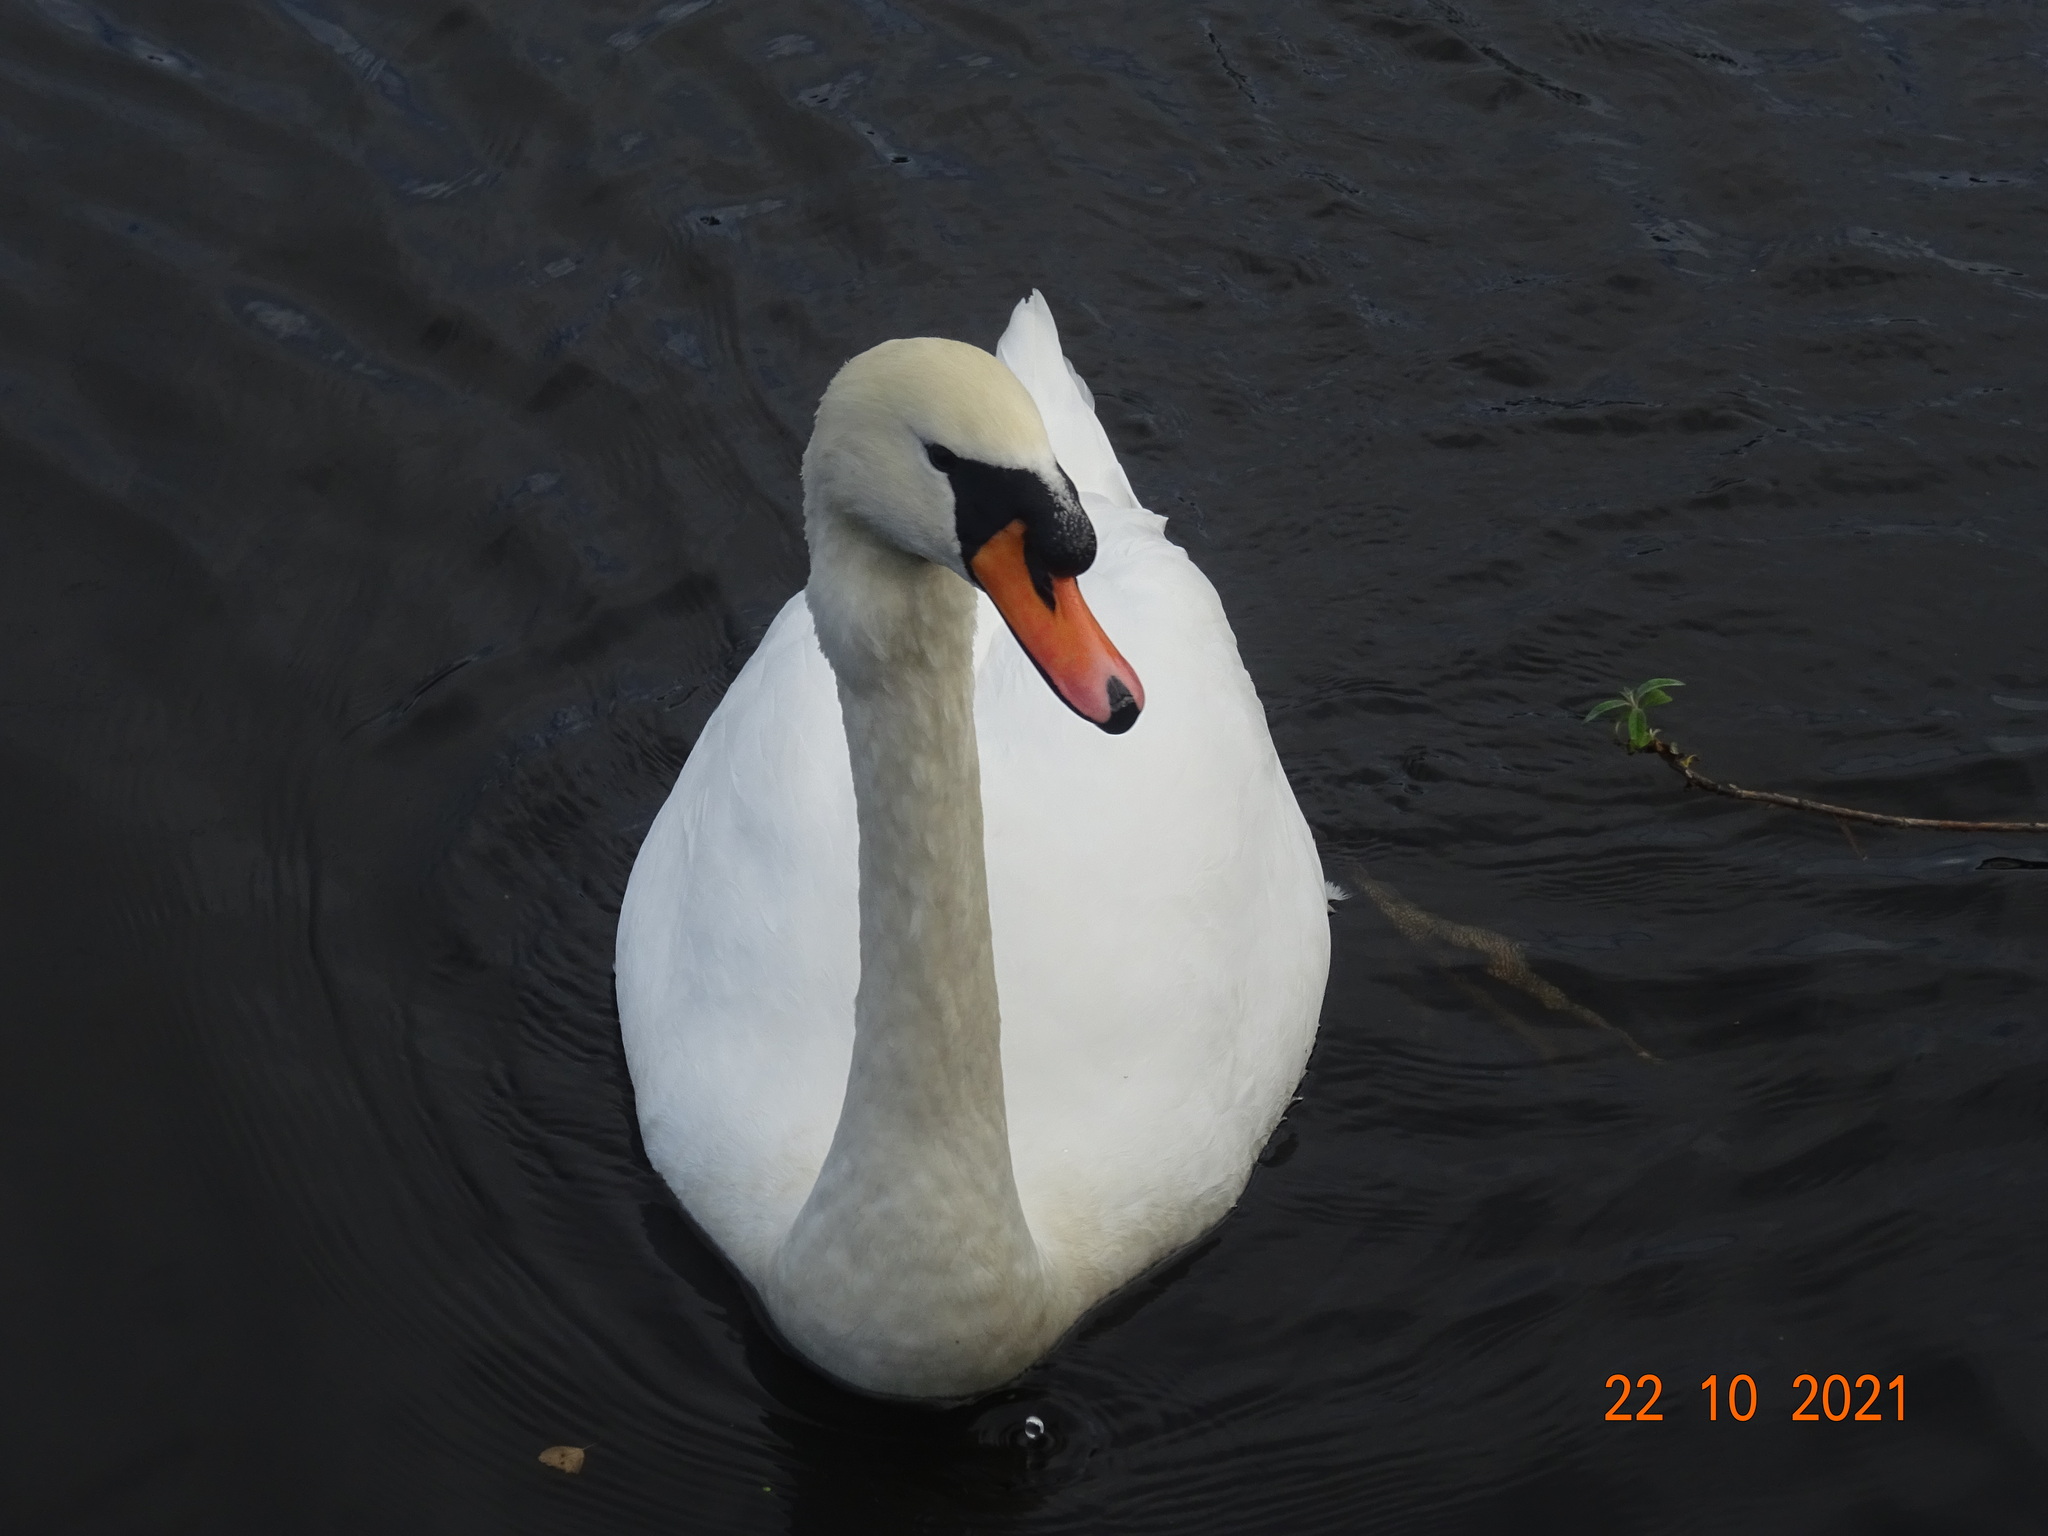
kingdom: Animalia
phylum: Chordata
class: Aves
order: Anseriformes
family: Anatidae
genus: Cygnus
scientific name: Cygnus olor
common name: Mute swan
